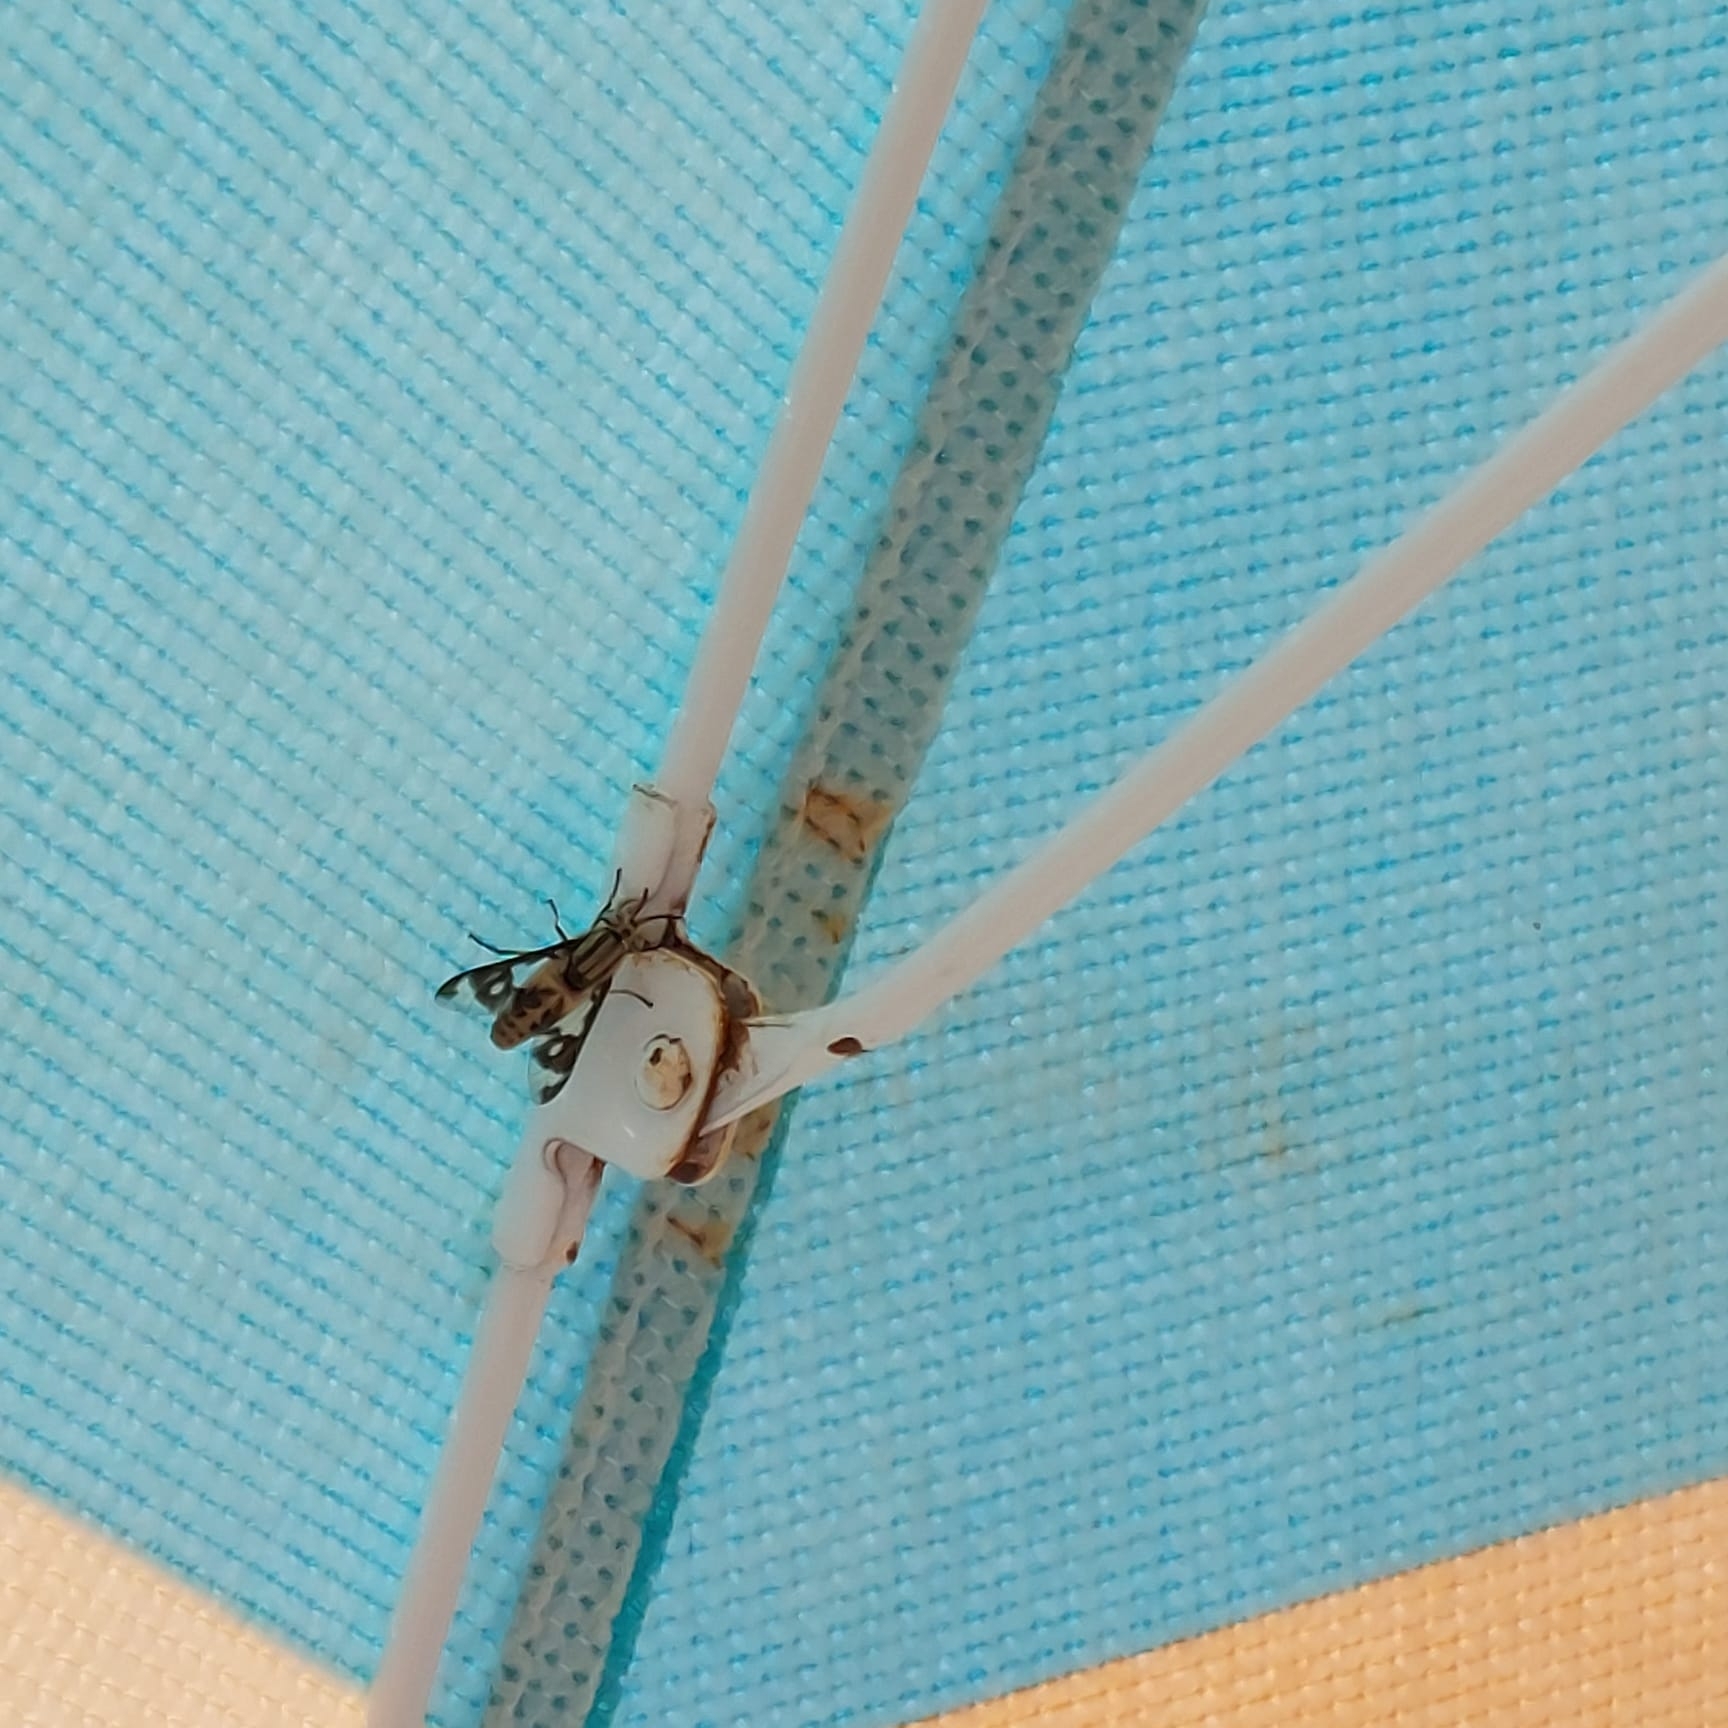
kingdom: Animalia
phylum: Arthropoda
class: Insecta
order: Diptera
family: Tabanidae
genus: Chrysops
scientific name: Chrysops italicus
